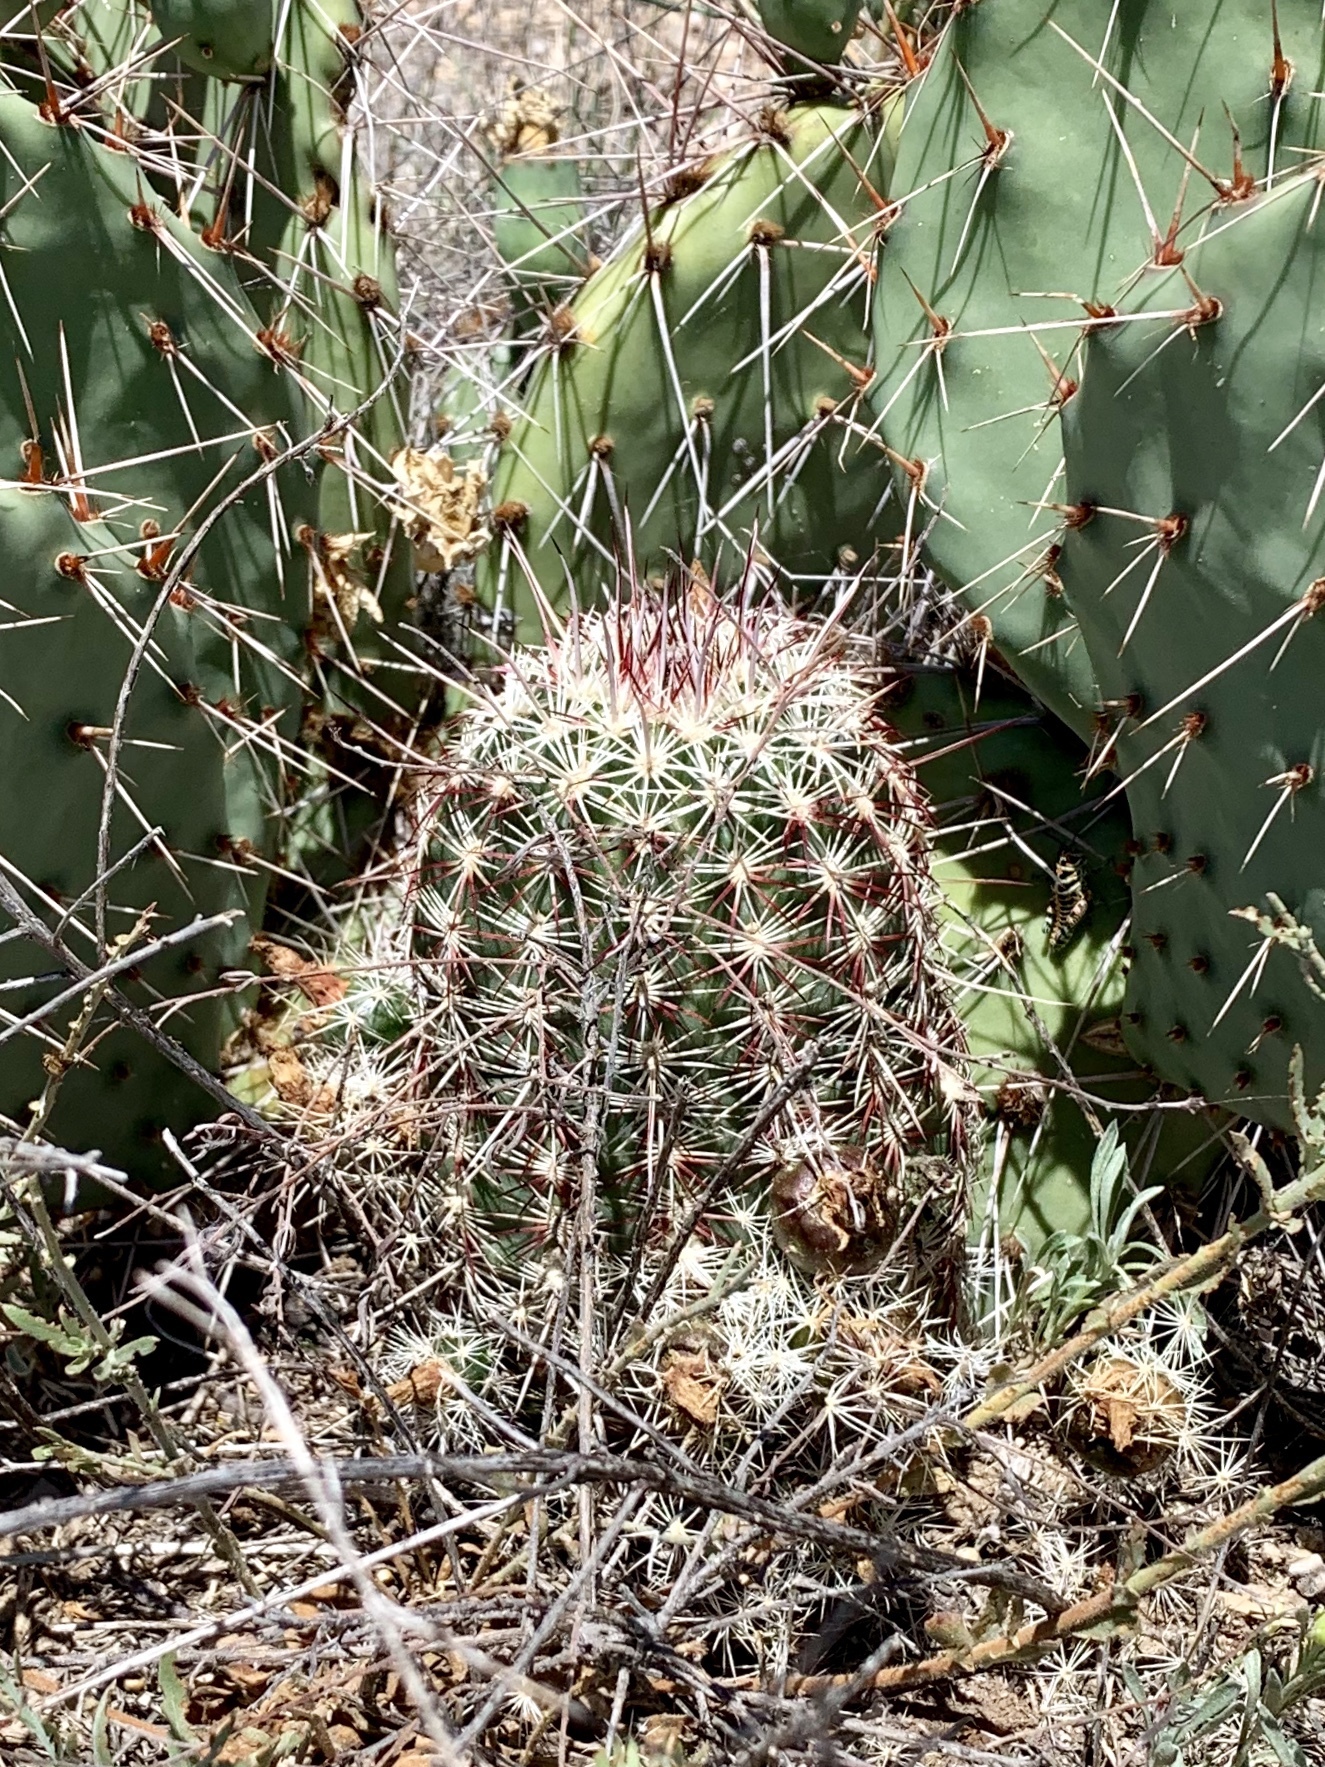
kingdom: Plantae
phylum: Tracheophyta
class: Magnoliopsida
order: Caryophyllales
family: Cactaceae
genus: Echinocereus
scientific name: Echinocereus viridiflorus
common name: Nylon hedgehog cactus
